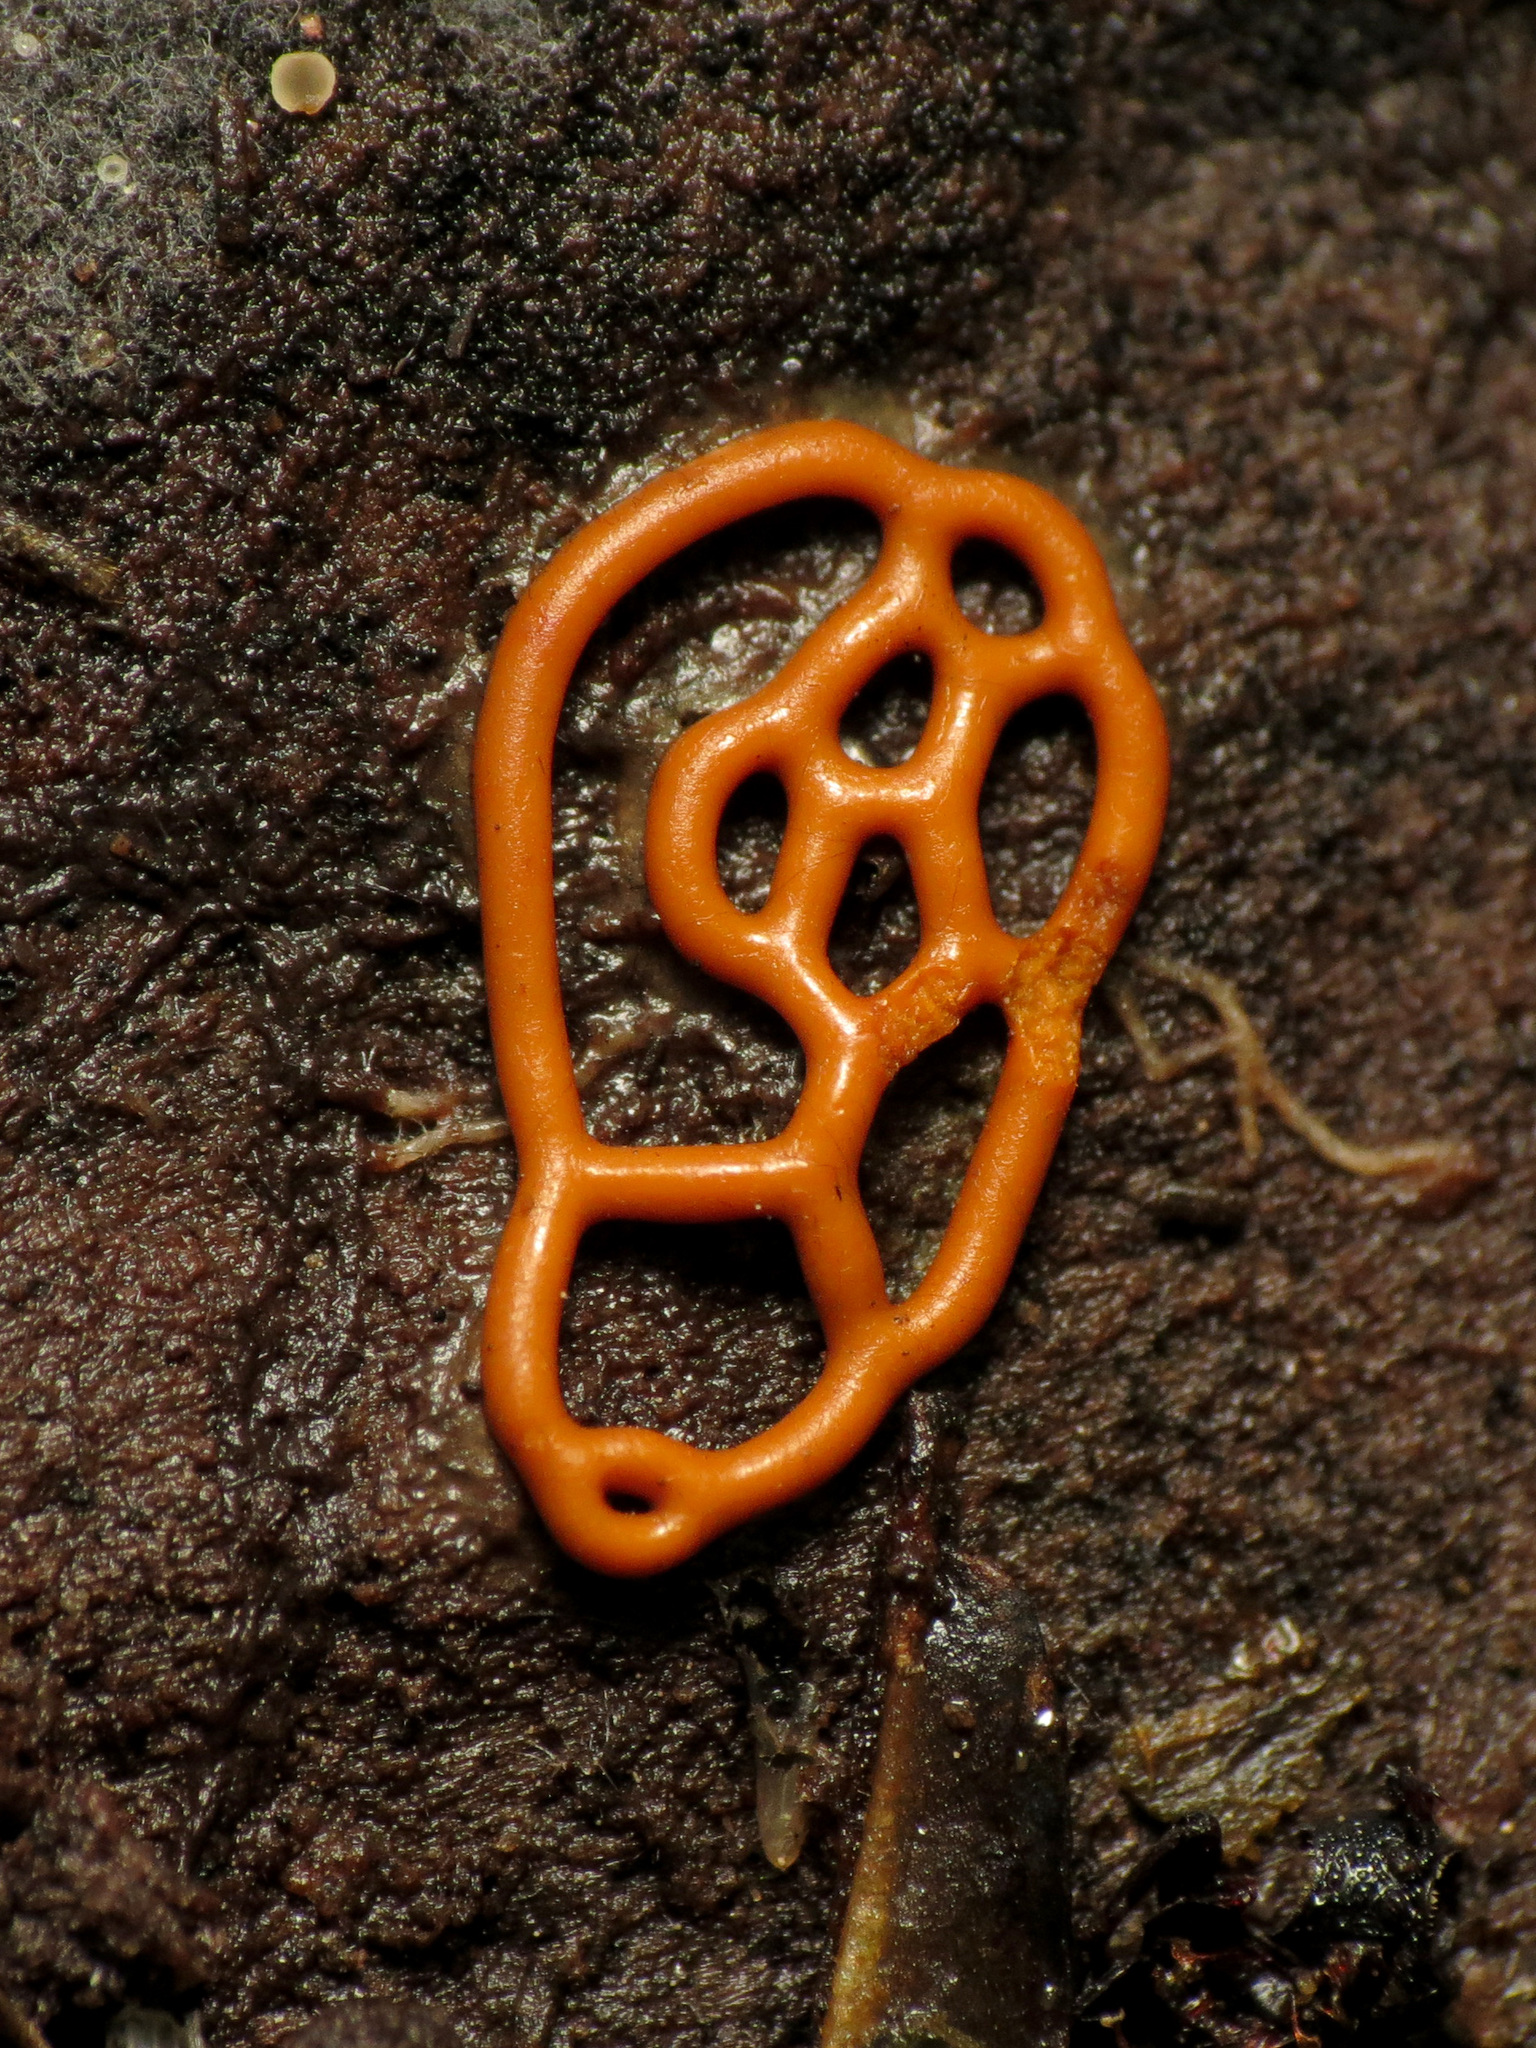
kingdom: Protozoa
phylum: Mycetozoa
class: Myxomycetes
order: Trichiales
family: Arcyriaceae
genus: Hemitrichia
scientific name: Hemitrichia serpula
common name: Pretzel slime mold
